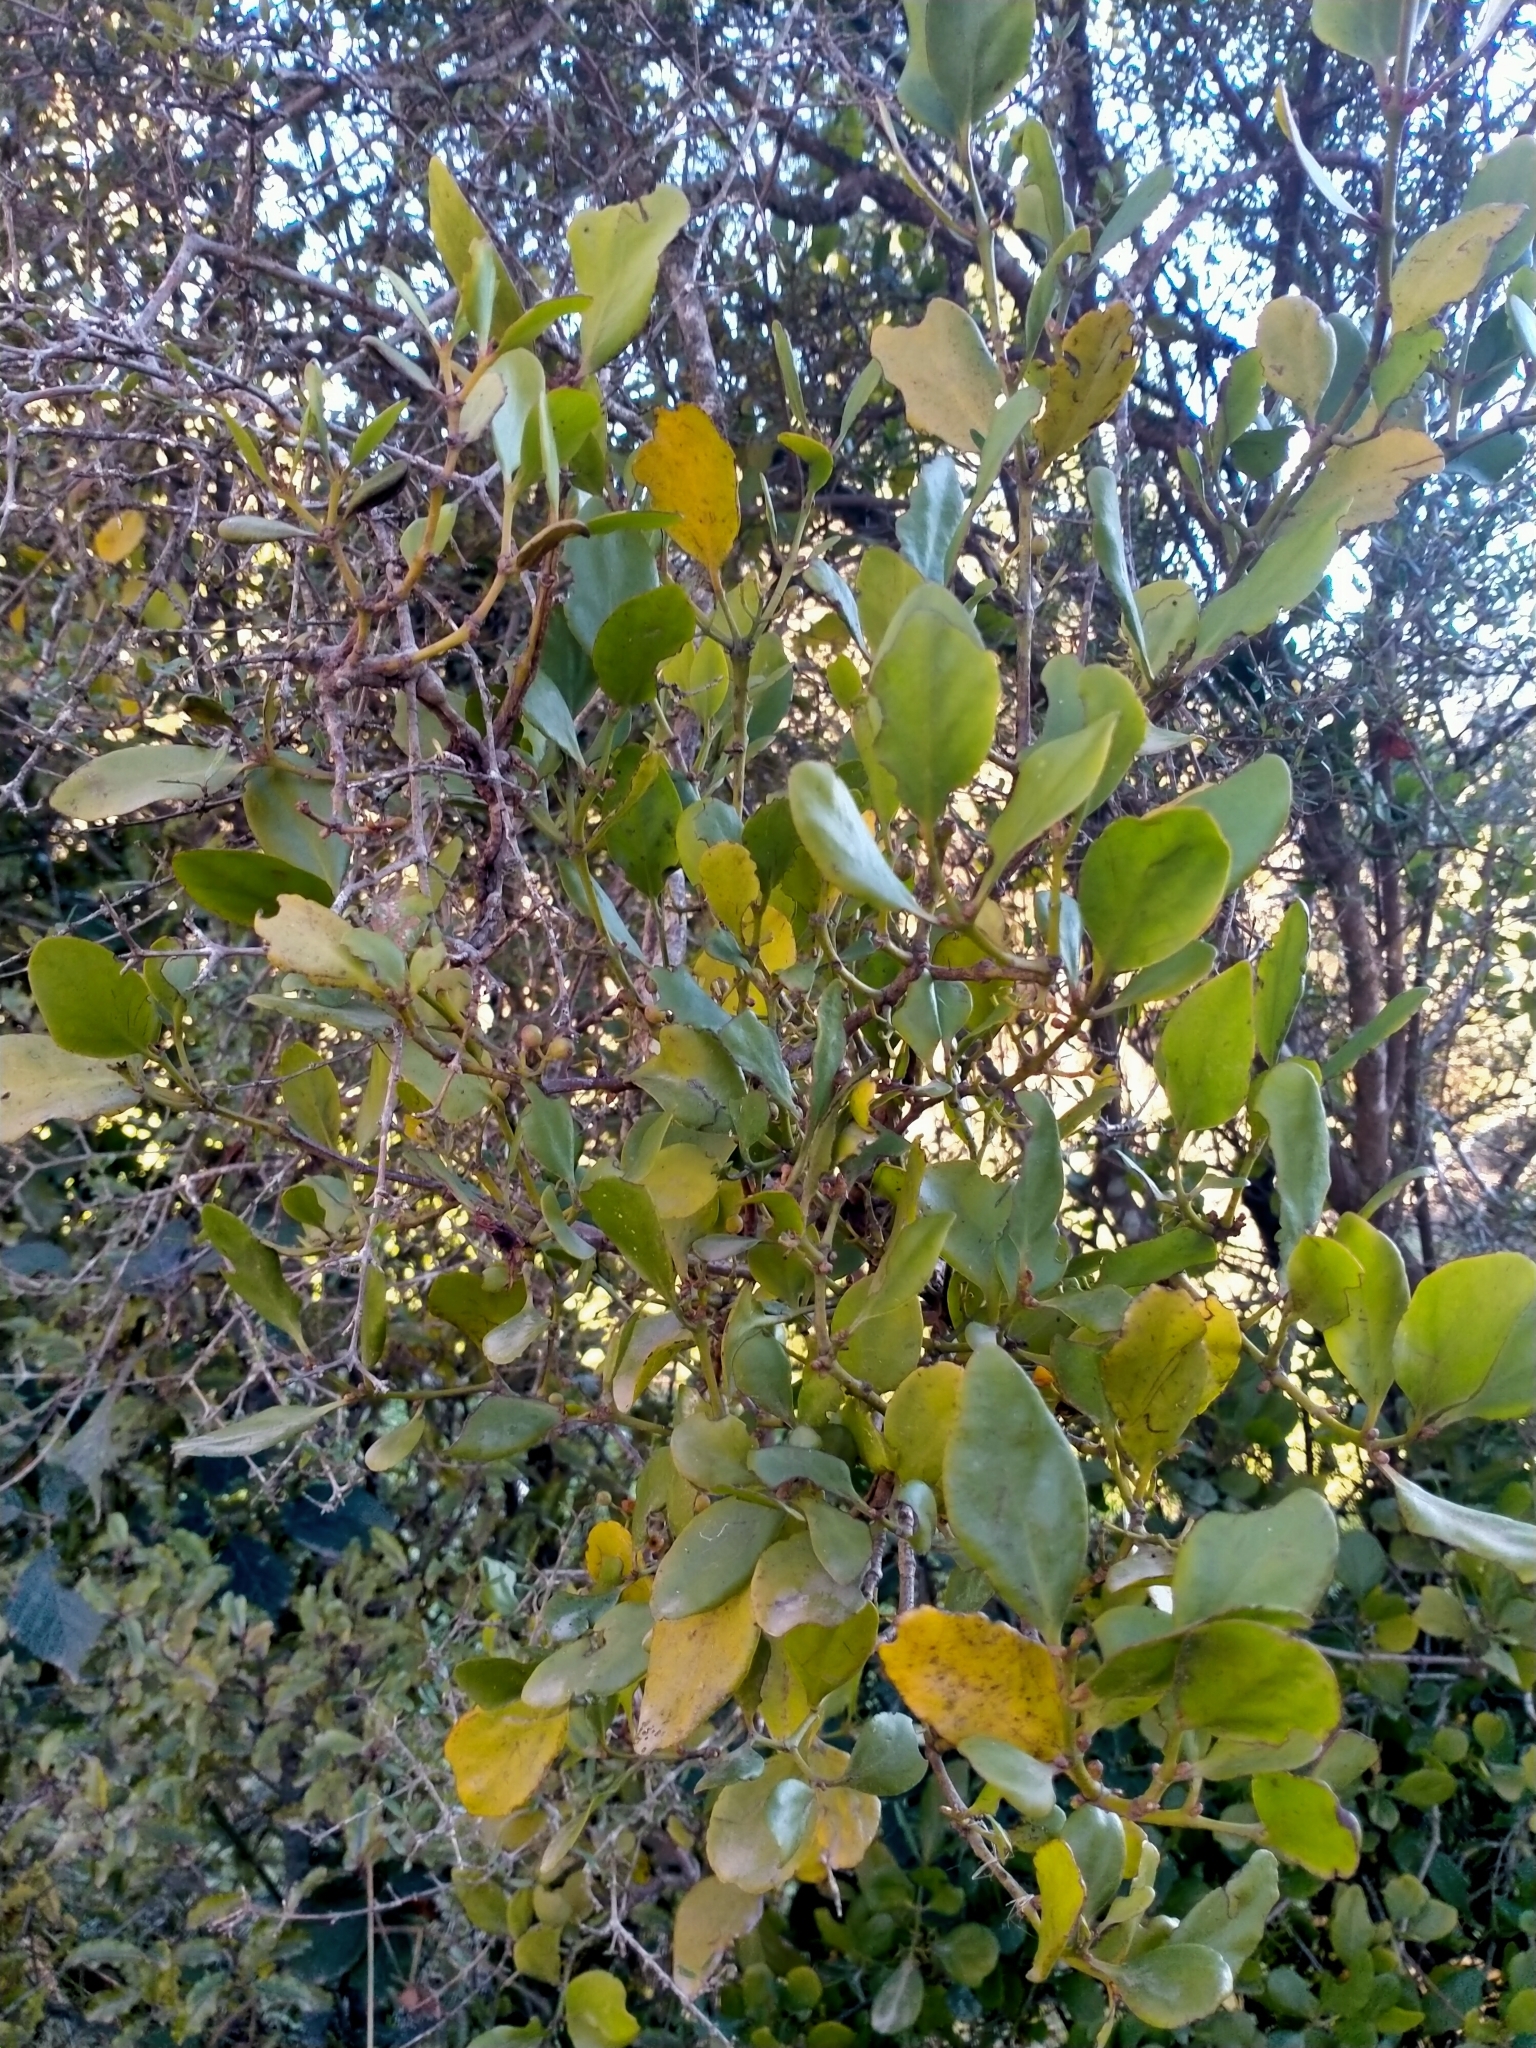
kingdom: Plantae
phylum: Tracheophyta
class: Magnoliopsida
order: Santalales
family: Loranthaceae
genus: Ileostylus
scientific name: Ileostylus micranthus
